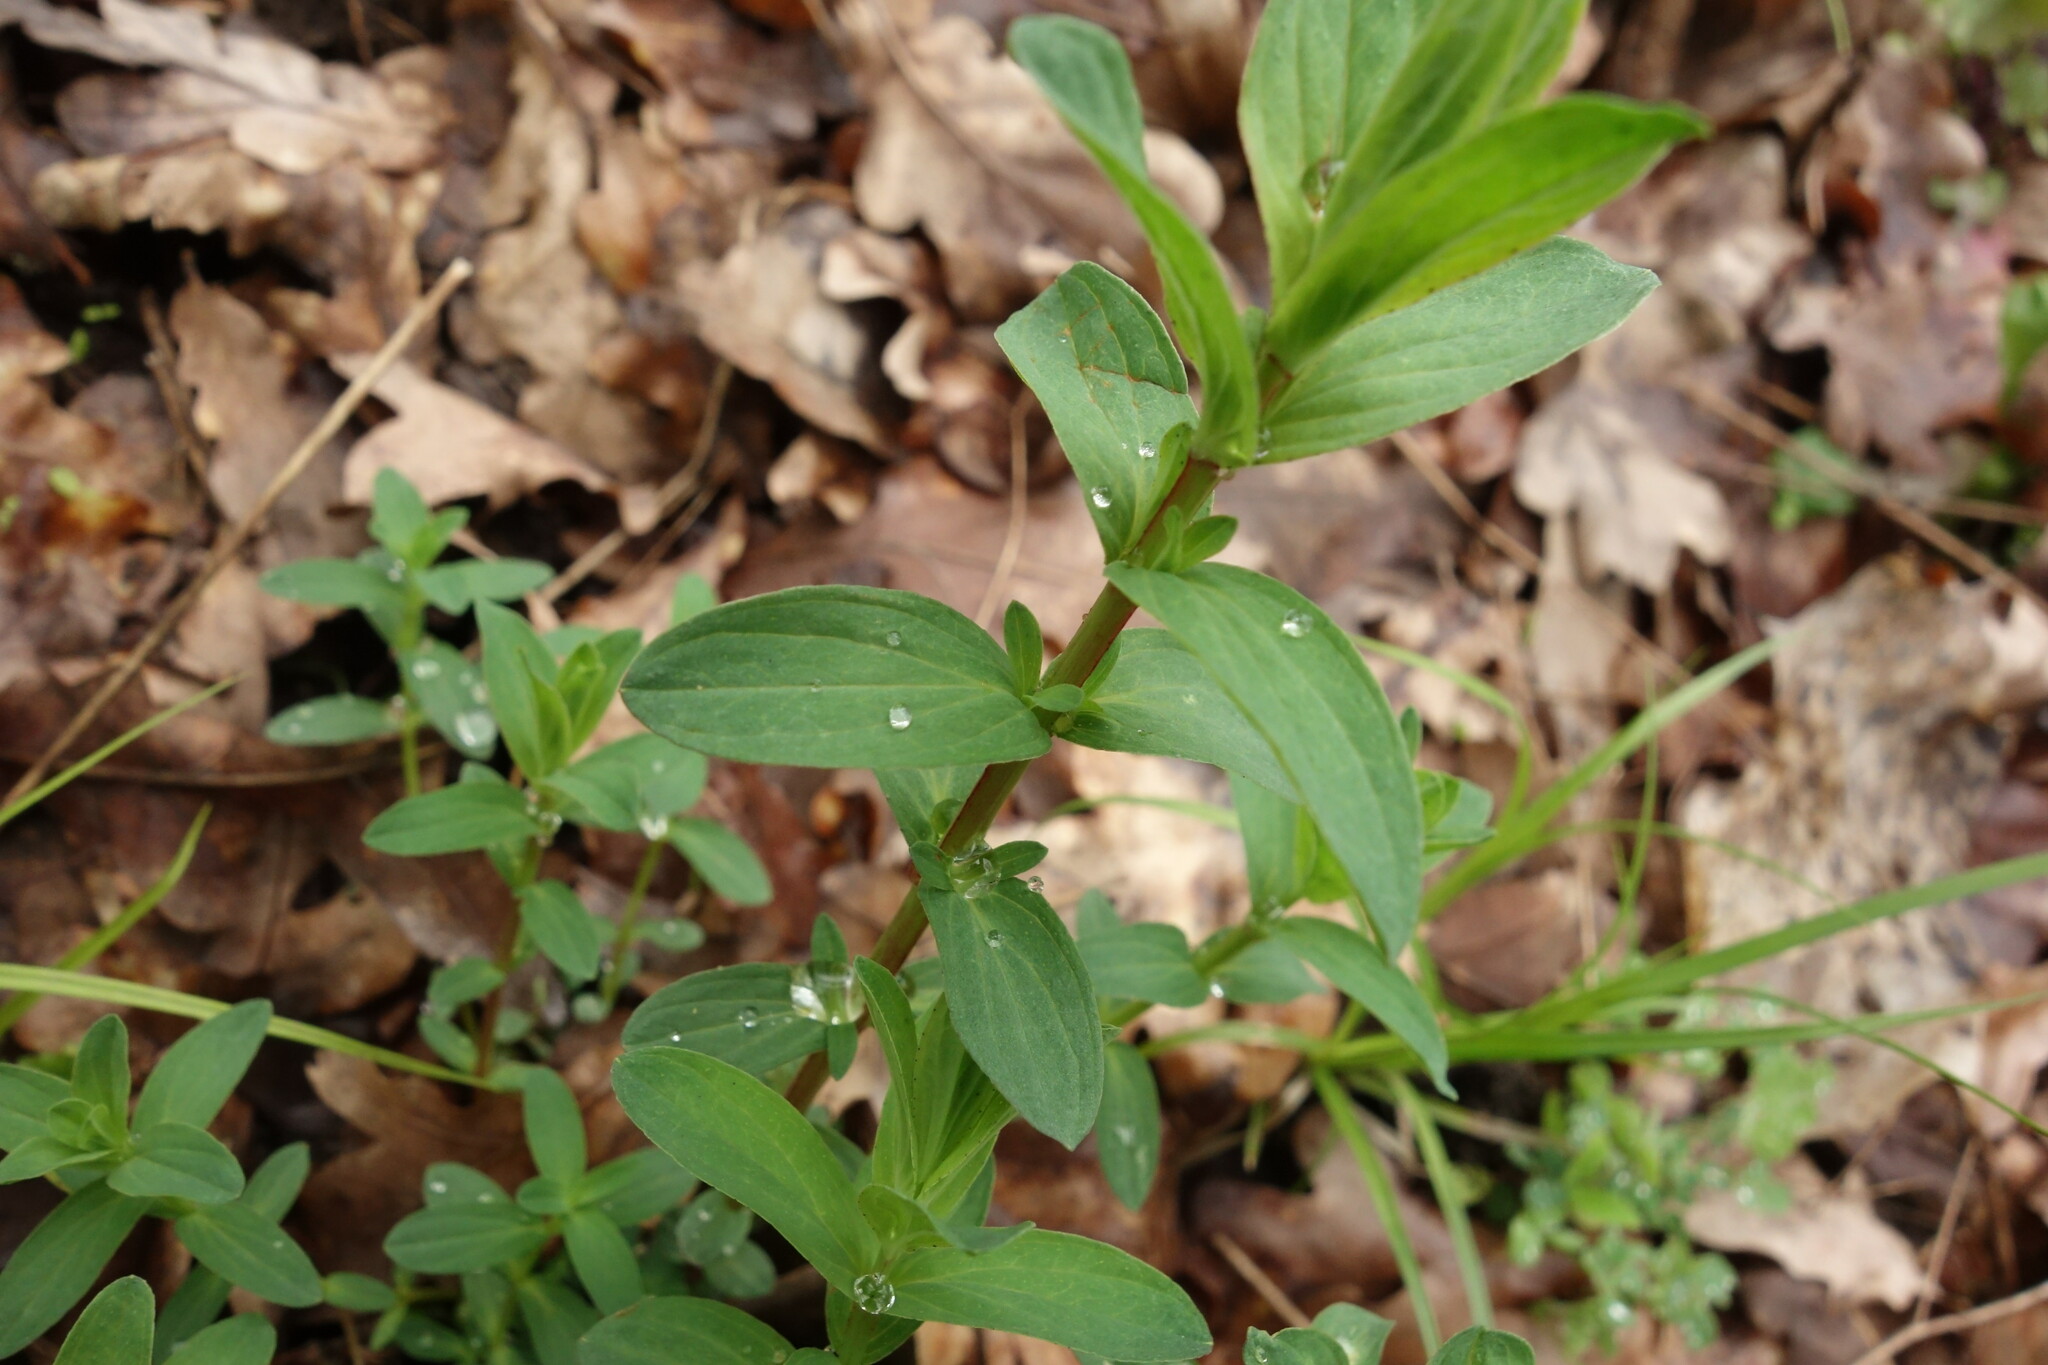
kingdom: Plantae
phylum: Tracheophyta
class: Magnoliopsida
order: Malpighiales
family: Hypericaceae
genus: Hypericum
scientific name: Hypericum perforatum
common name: Common st. johnswort
